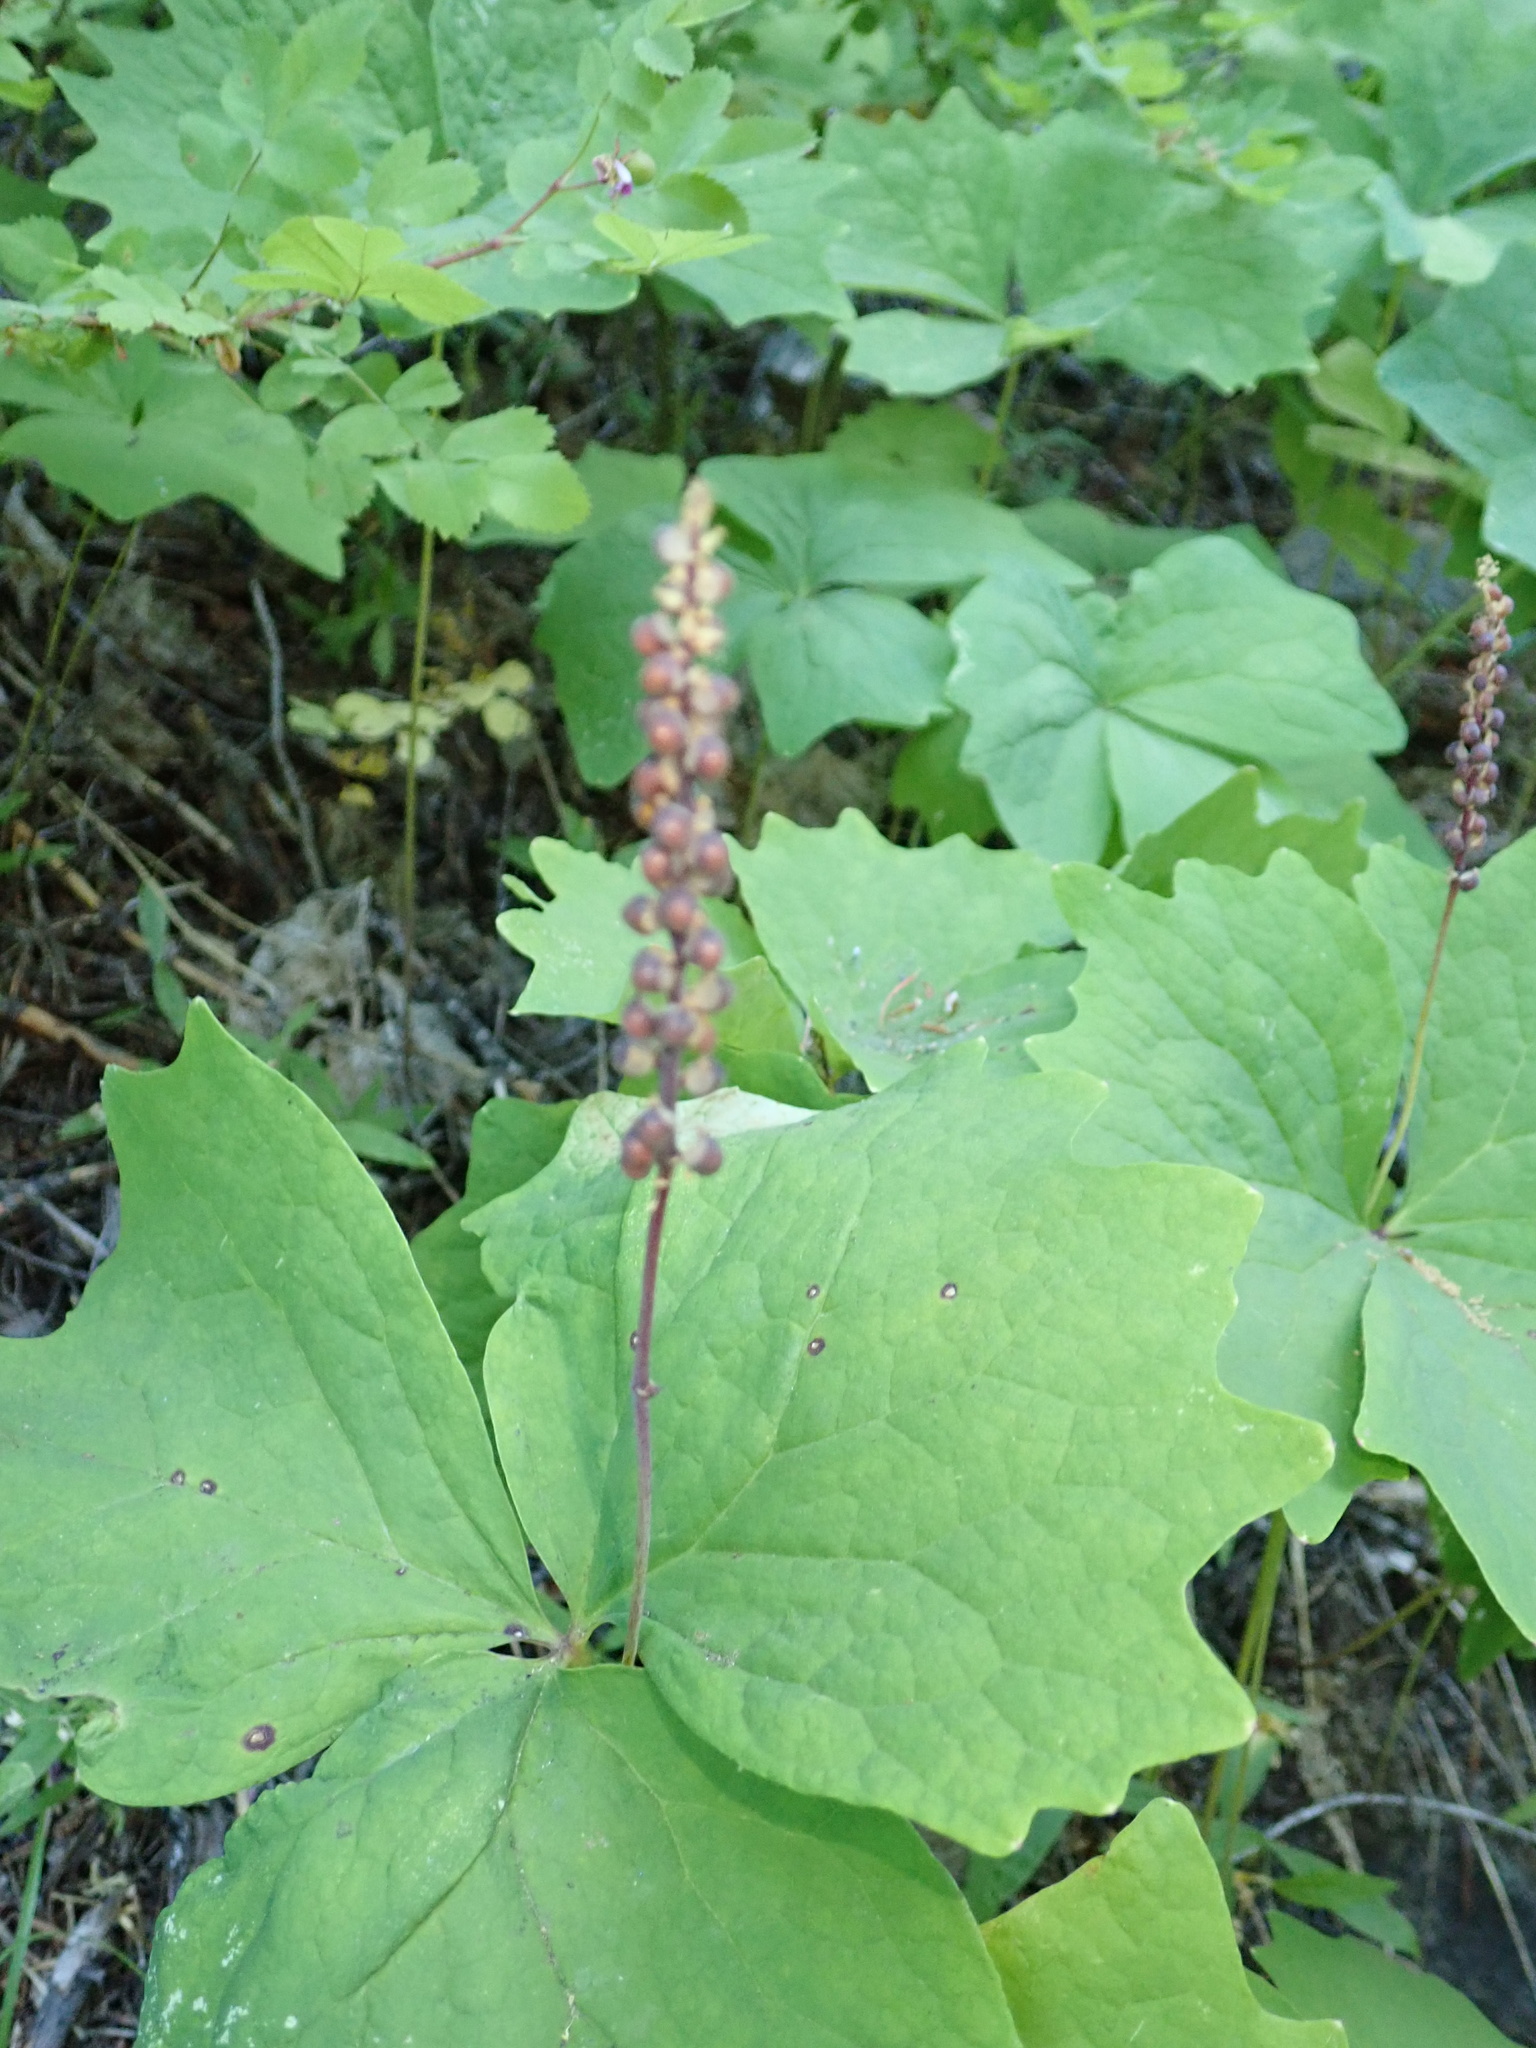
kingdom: Plantae
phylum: Tracheophyta
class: Magnoliopsida
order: Ranunculales
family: Berberidaceae
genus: Achlys
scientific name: Achlys triphylla
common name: Vanilla-leaf
